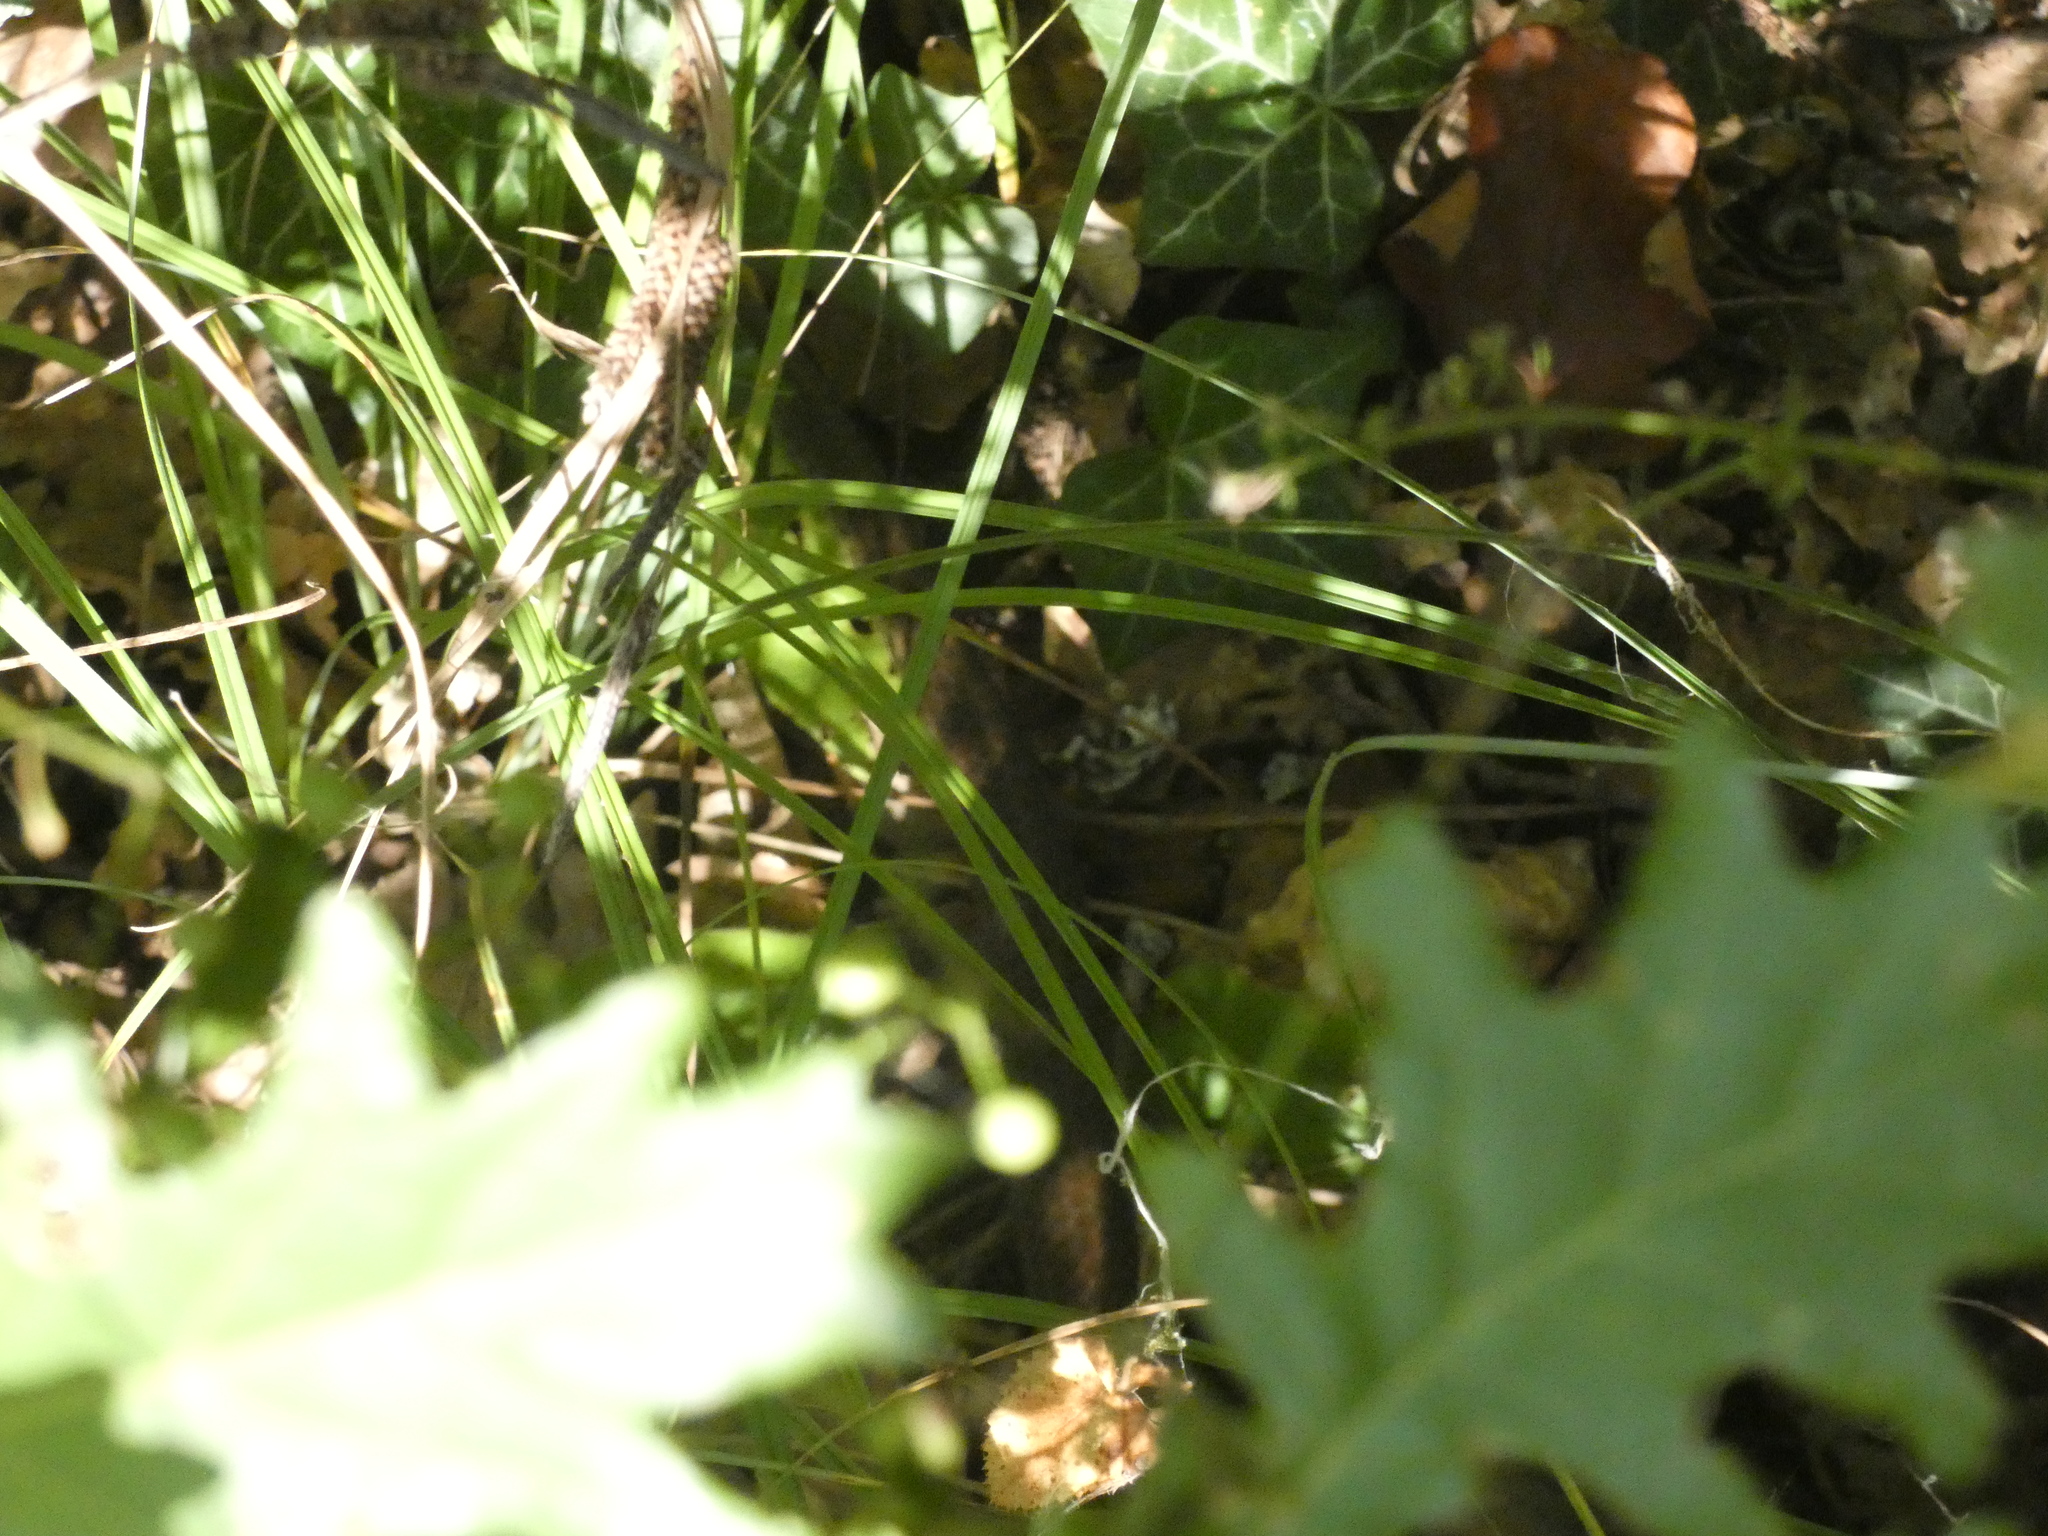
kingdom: Animalia
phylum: Chordata
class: Squamata
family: Colubridae
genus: Zamenis
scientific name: Zamenis longissimus
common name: Aesculapean snake
